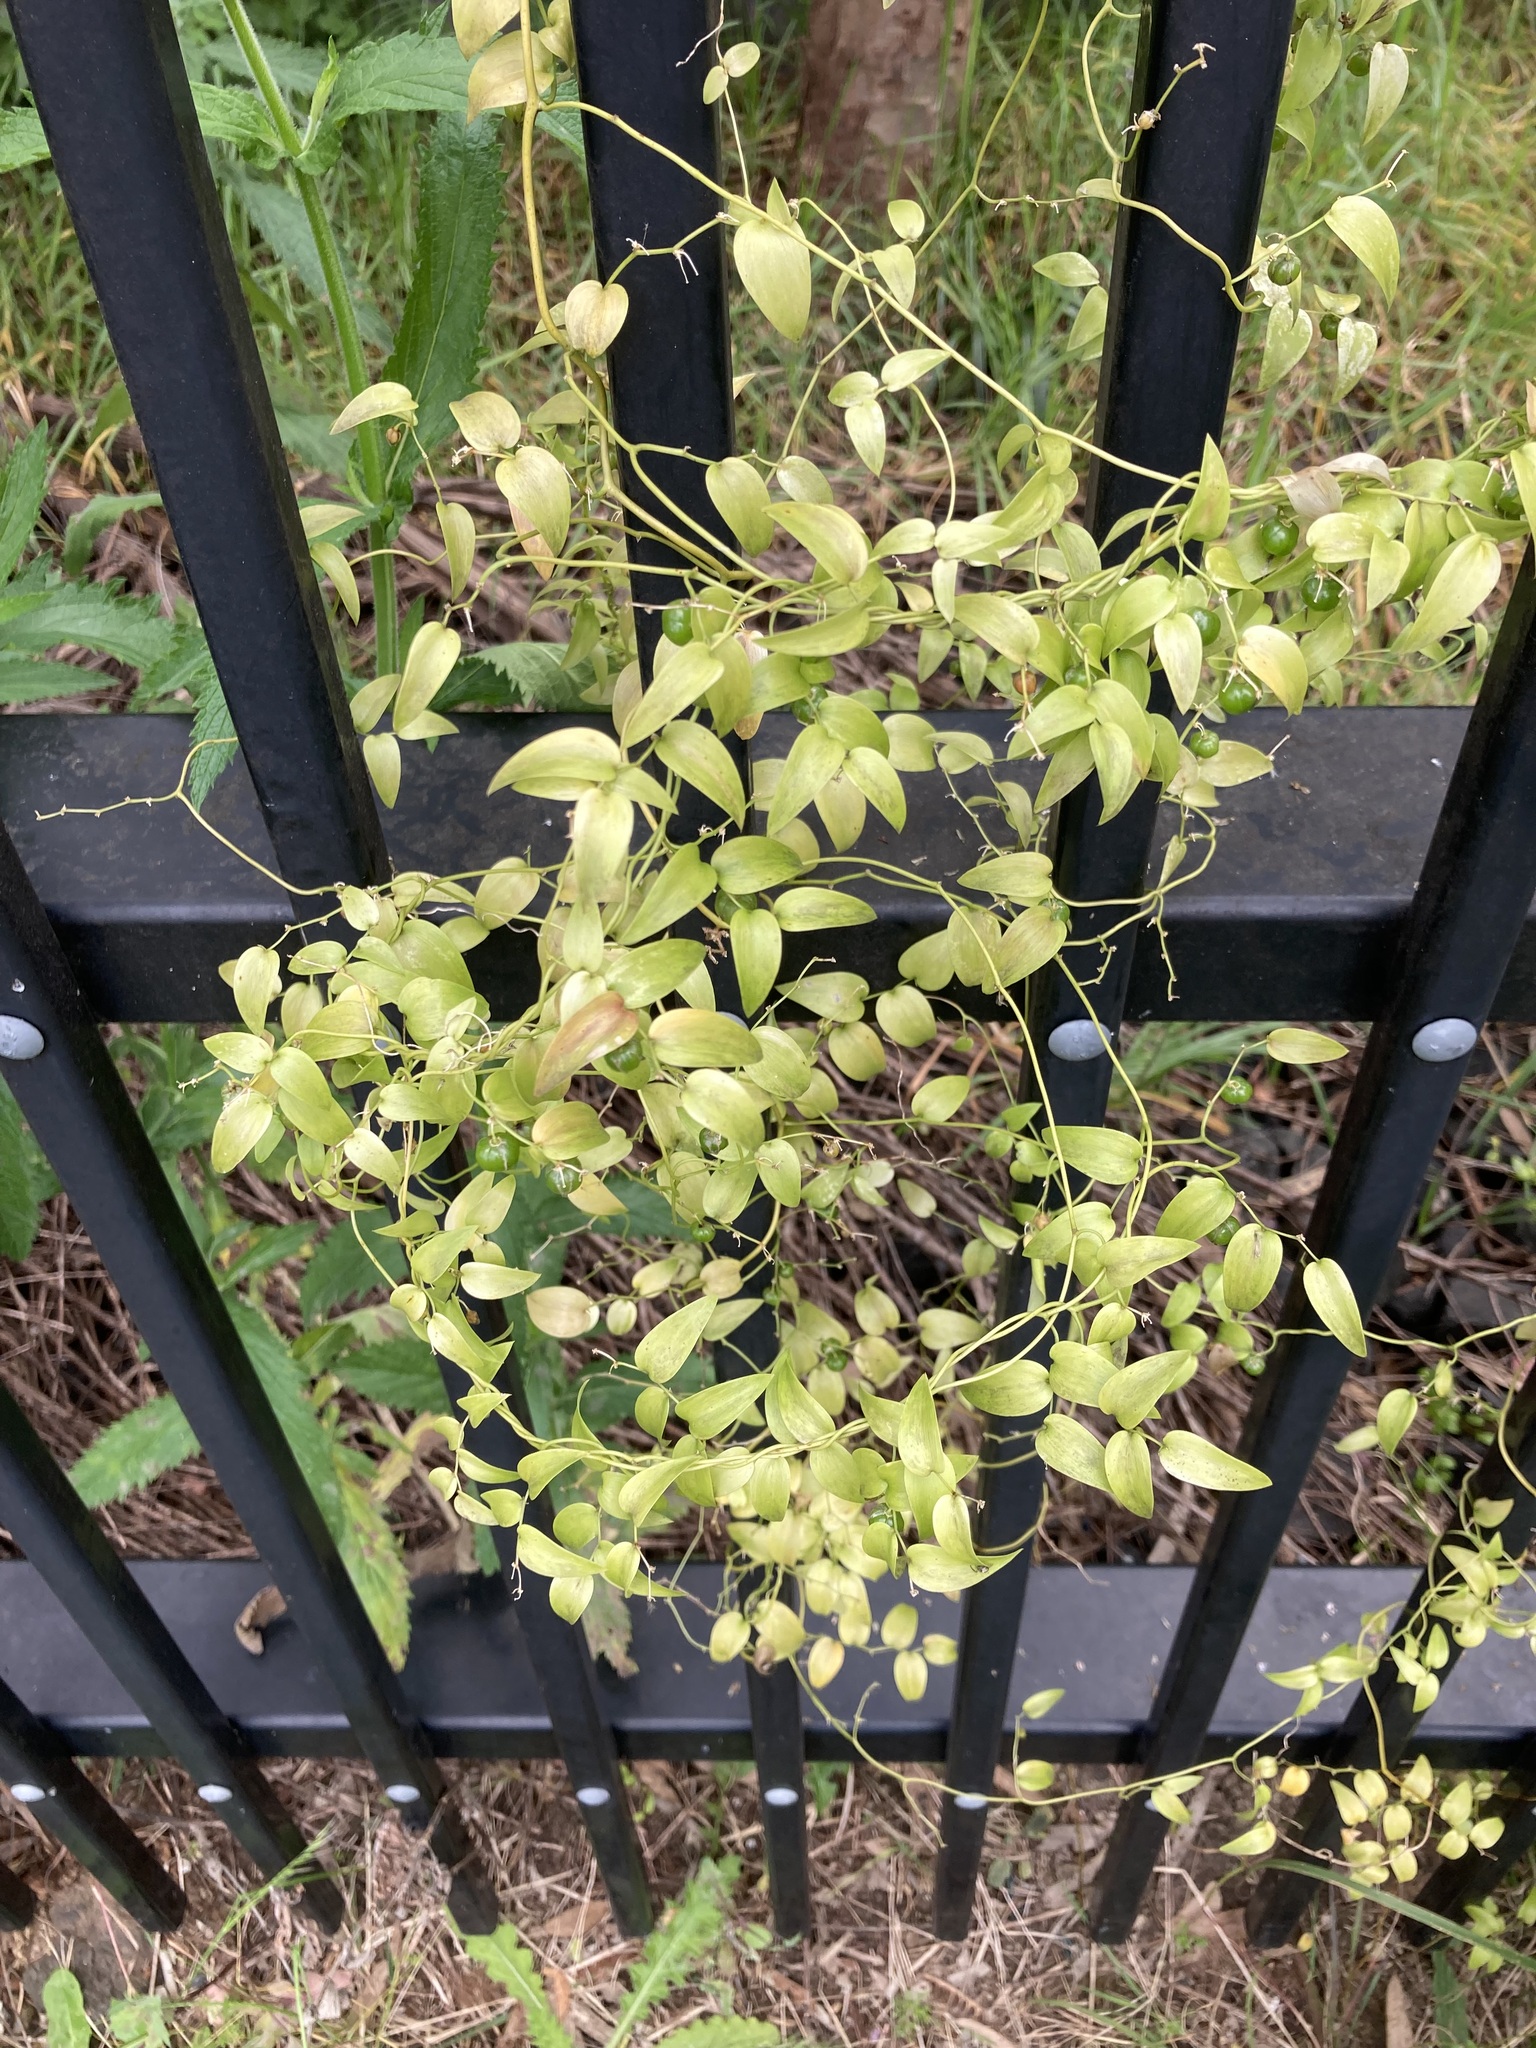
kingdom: Plantae
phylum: Tracheophyta
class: Liliopsida
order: Asparagales
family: Asparagaceae
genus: Asparagus
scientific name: Asparagus asparagoides
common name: African asparagus fern
